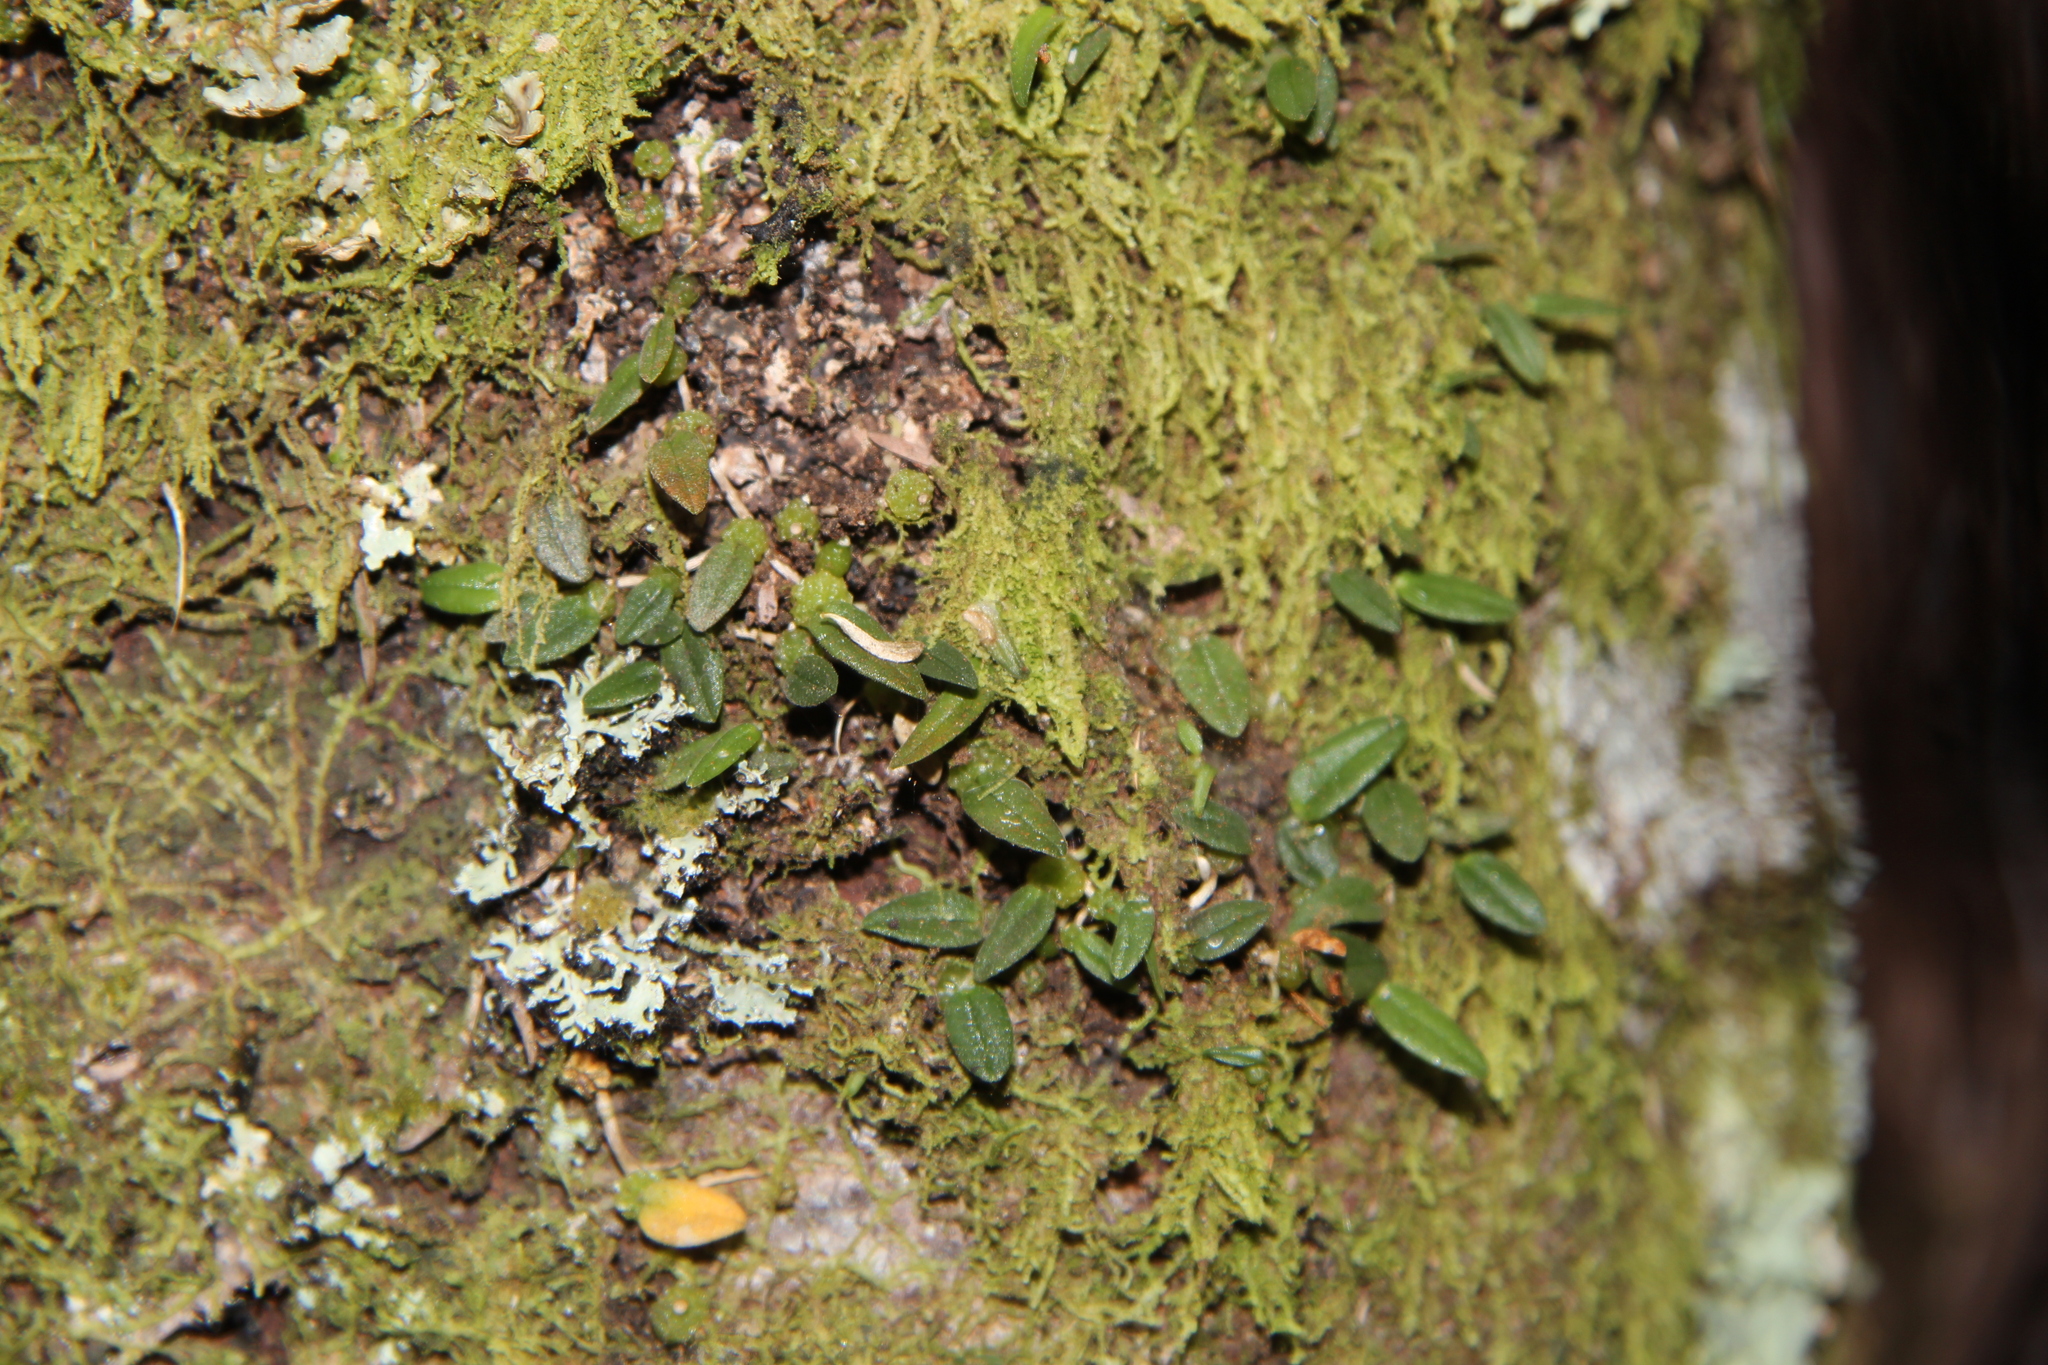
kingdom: Plantae
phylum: Tracheophyta
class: Liliopsida
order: Asparagales
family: Orchidaceae
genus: Bulbophyllum
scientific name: Bulbophyllum pygmaeum
